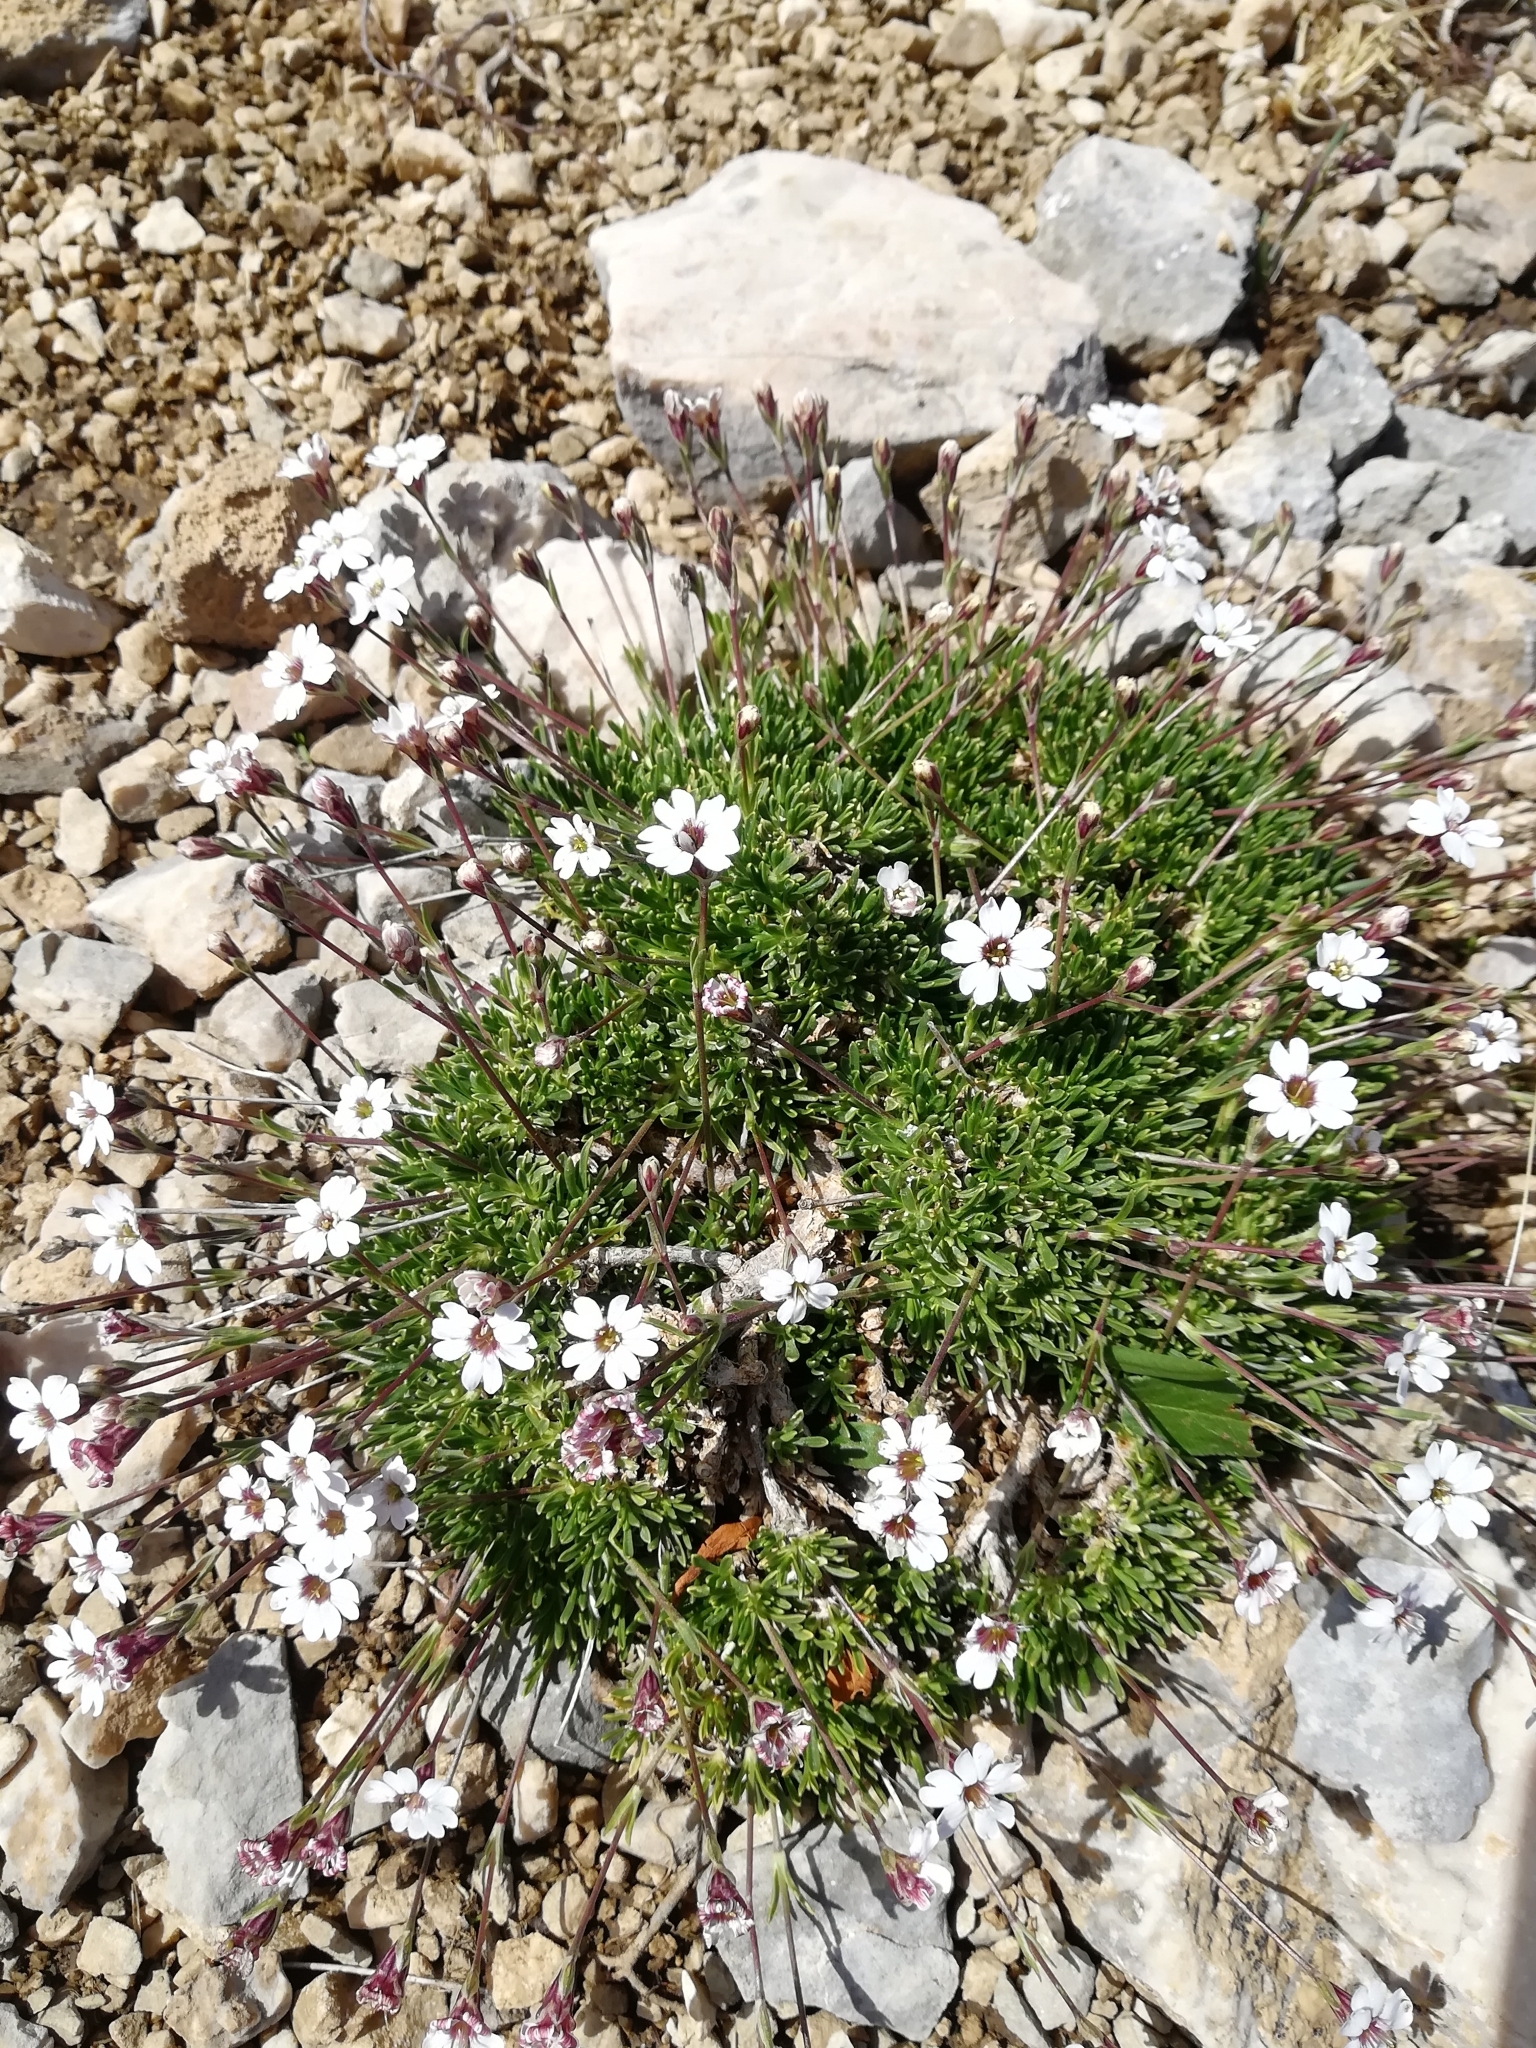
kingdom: Plantae
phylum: Tracheophyta
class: Magnoliopsida
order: Caryophyllales
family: Caryophyllaceae
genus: Silene
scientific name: Silene dianthoides
